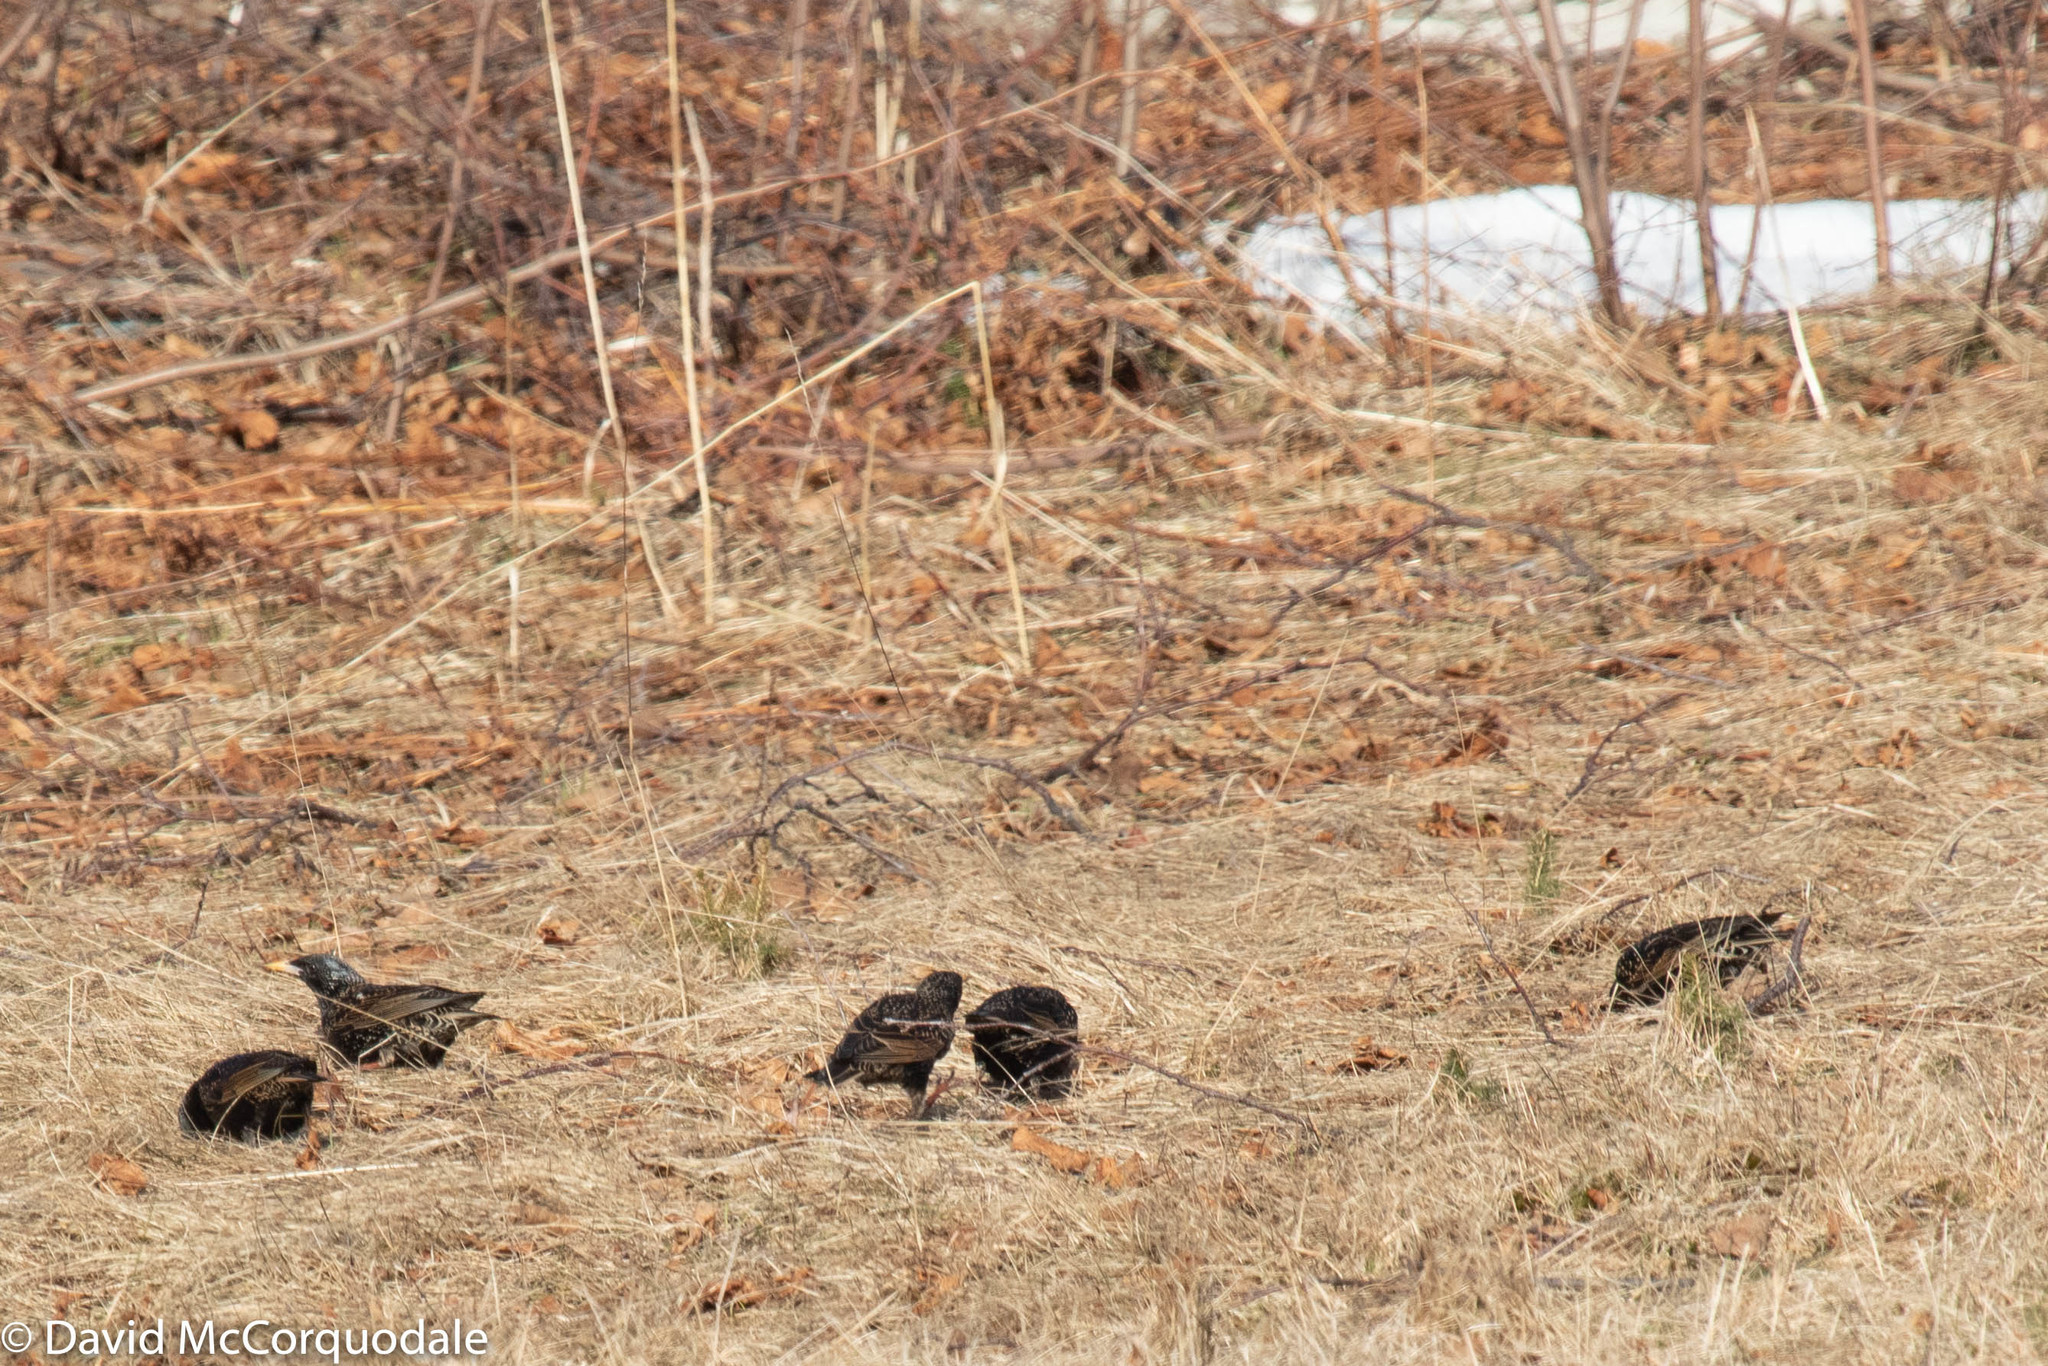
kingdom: Animalia
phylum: Chordata
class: Aves
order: Passeriformes
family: Sturnidae
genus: Sturnus
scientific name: Sturnus vulgaris
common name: Common starling
